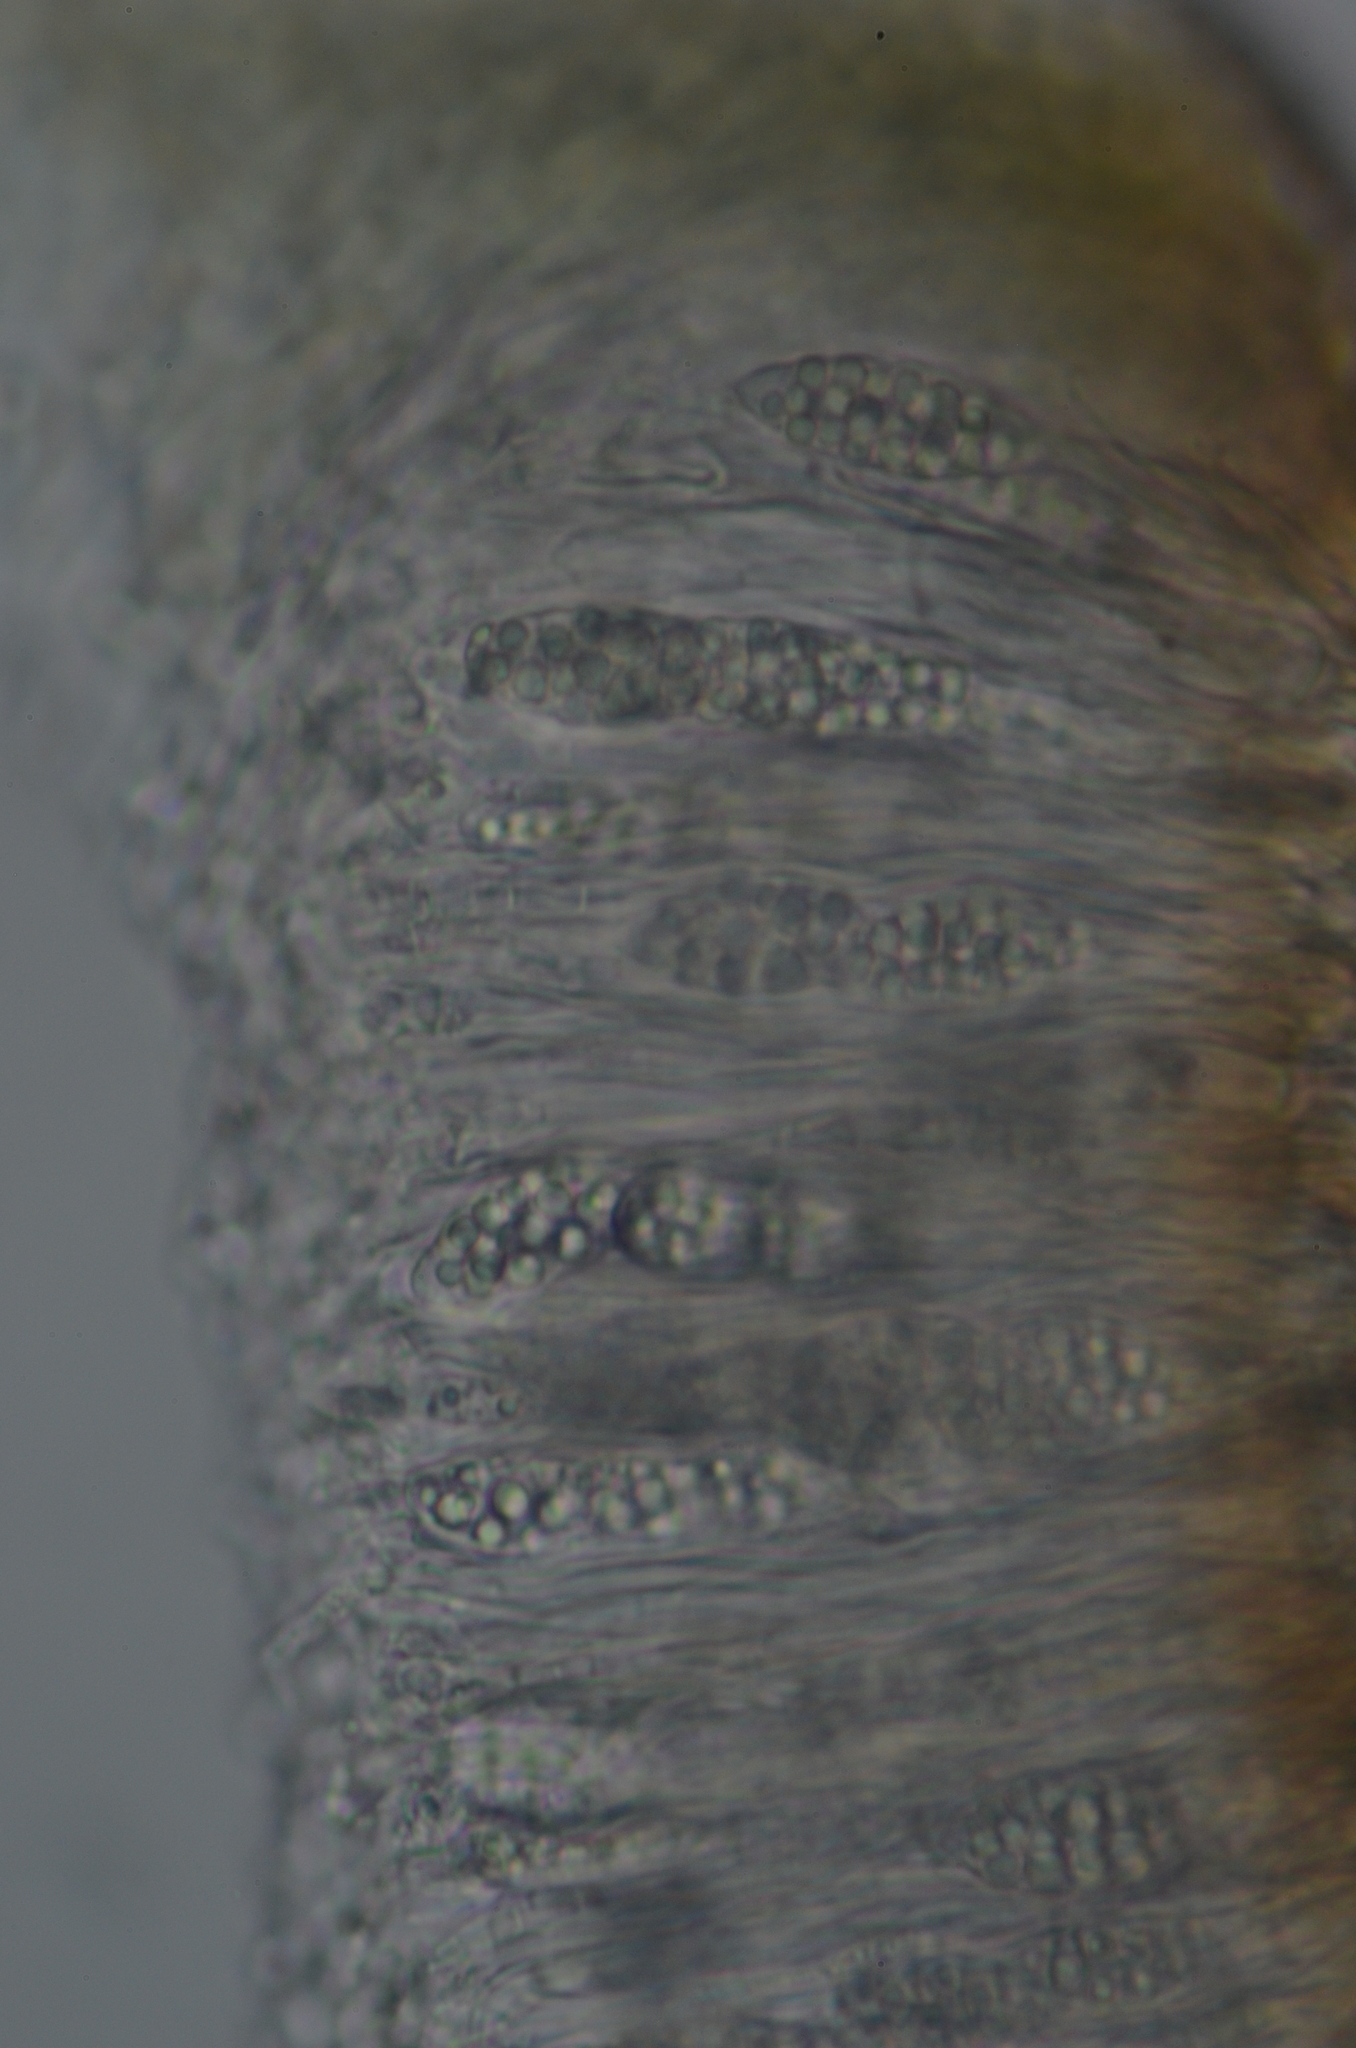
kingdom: Fungi
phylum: Ascomycota
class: Lecanoromycetes
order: Peltigerales
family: Collemataceae
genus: Scytinium
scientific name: Scytinium polycarpum
